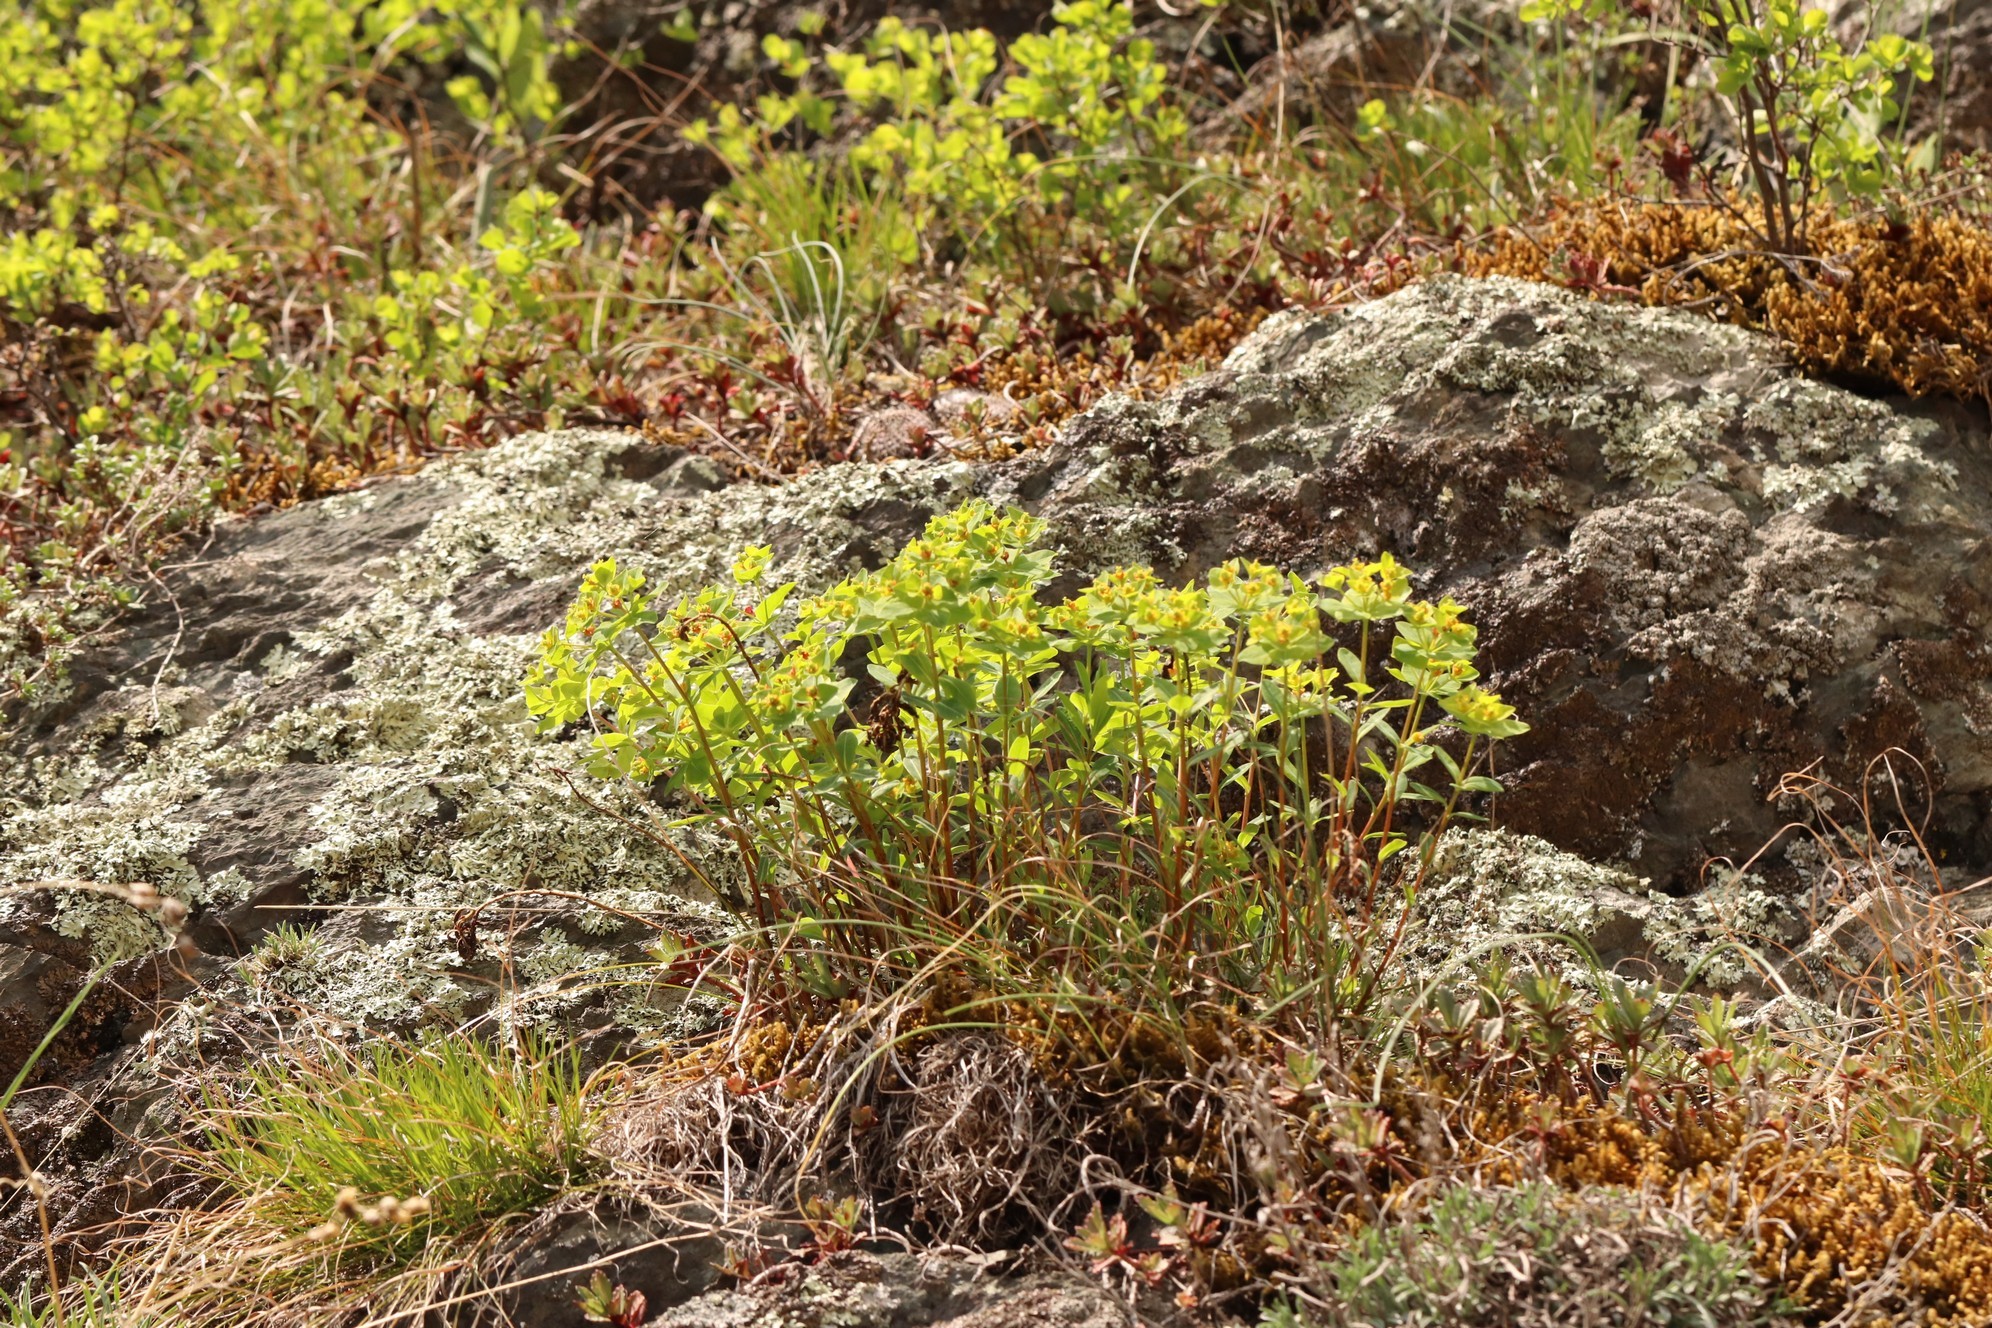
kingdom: Plantae
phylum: Tracheophyta
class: Magnoliopsida
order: Malpighiales
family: Euphorbiaceae
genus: Euphorbia
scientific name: Euphorbia altaica
